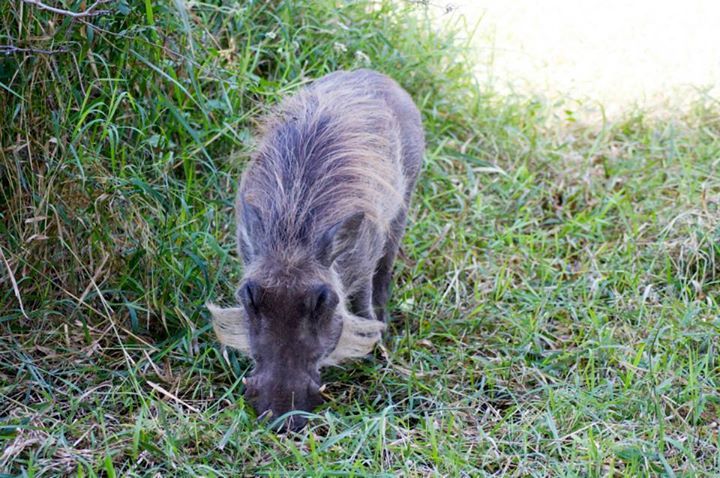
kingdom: Animalia
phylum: Chordata
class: Mammalia
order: Artiodactyla
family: Suidae
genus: Phacochoerus
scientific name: Phacochoerus africanus
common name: Common warthog
